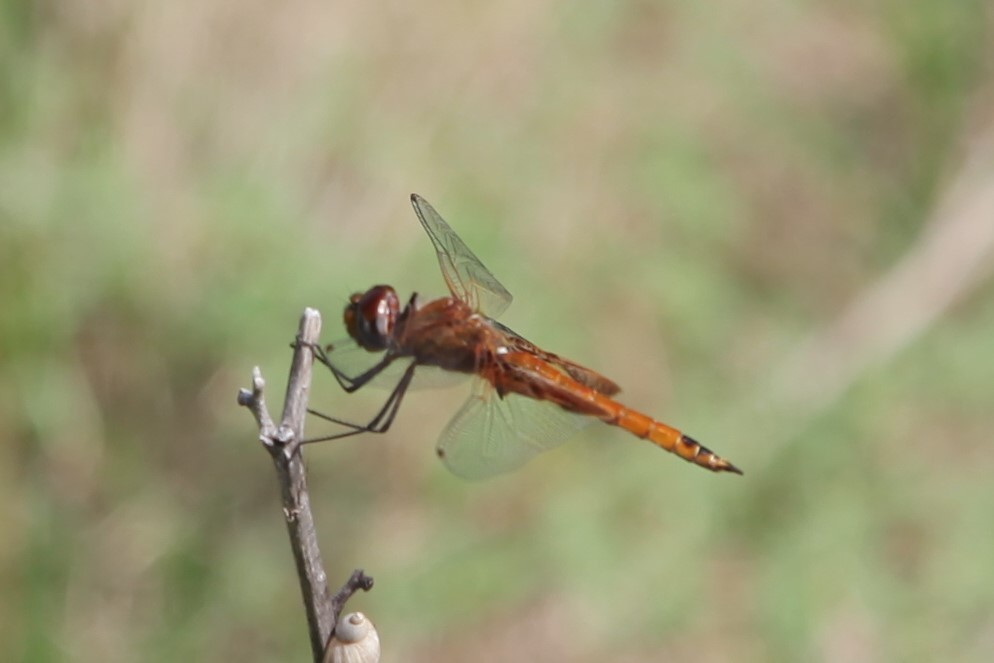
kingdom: Animalia
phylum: Arthropoda
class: Insecta
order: Odonata
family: Libellulidae
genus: Tramea
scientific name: Tramea onusta
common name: Red saddlebags
